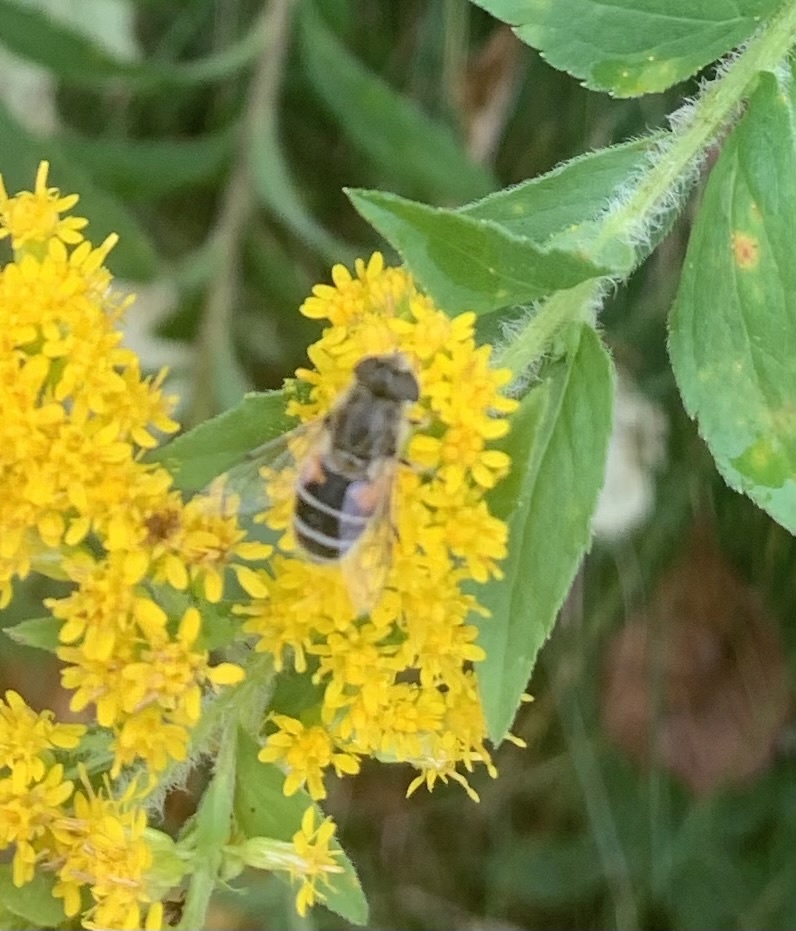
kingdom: Animalia
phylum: Arthropoda
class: Insecta
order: Diptera
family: Syrphidae
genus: Eristalis
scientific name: Eristalis arbustorum
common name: Hover fly
